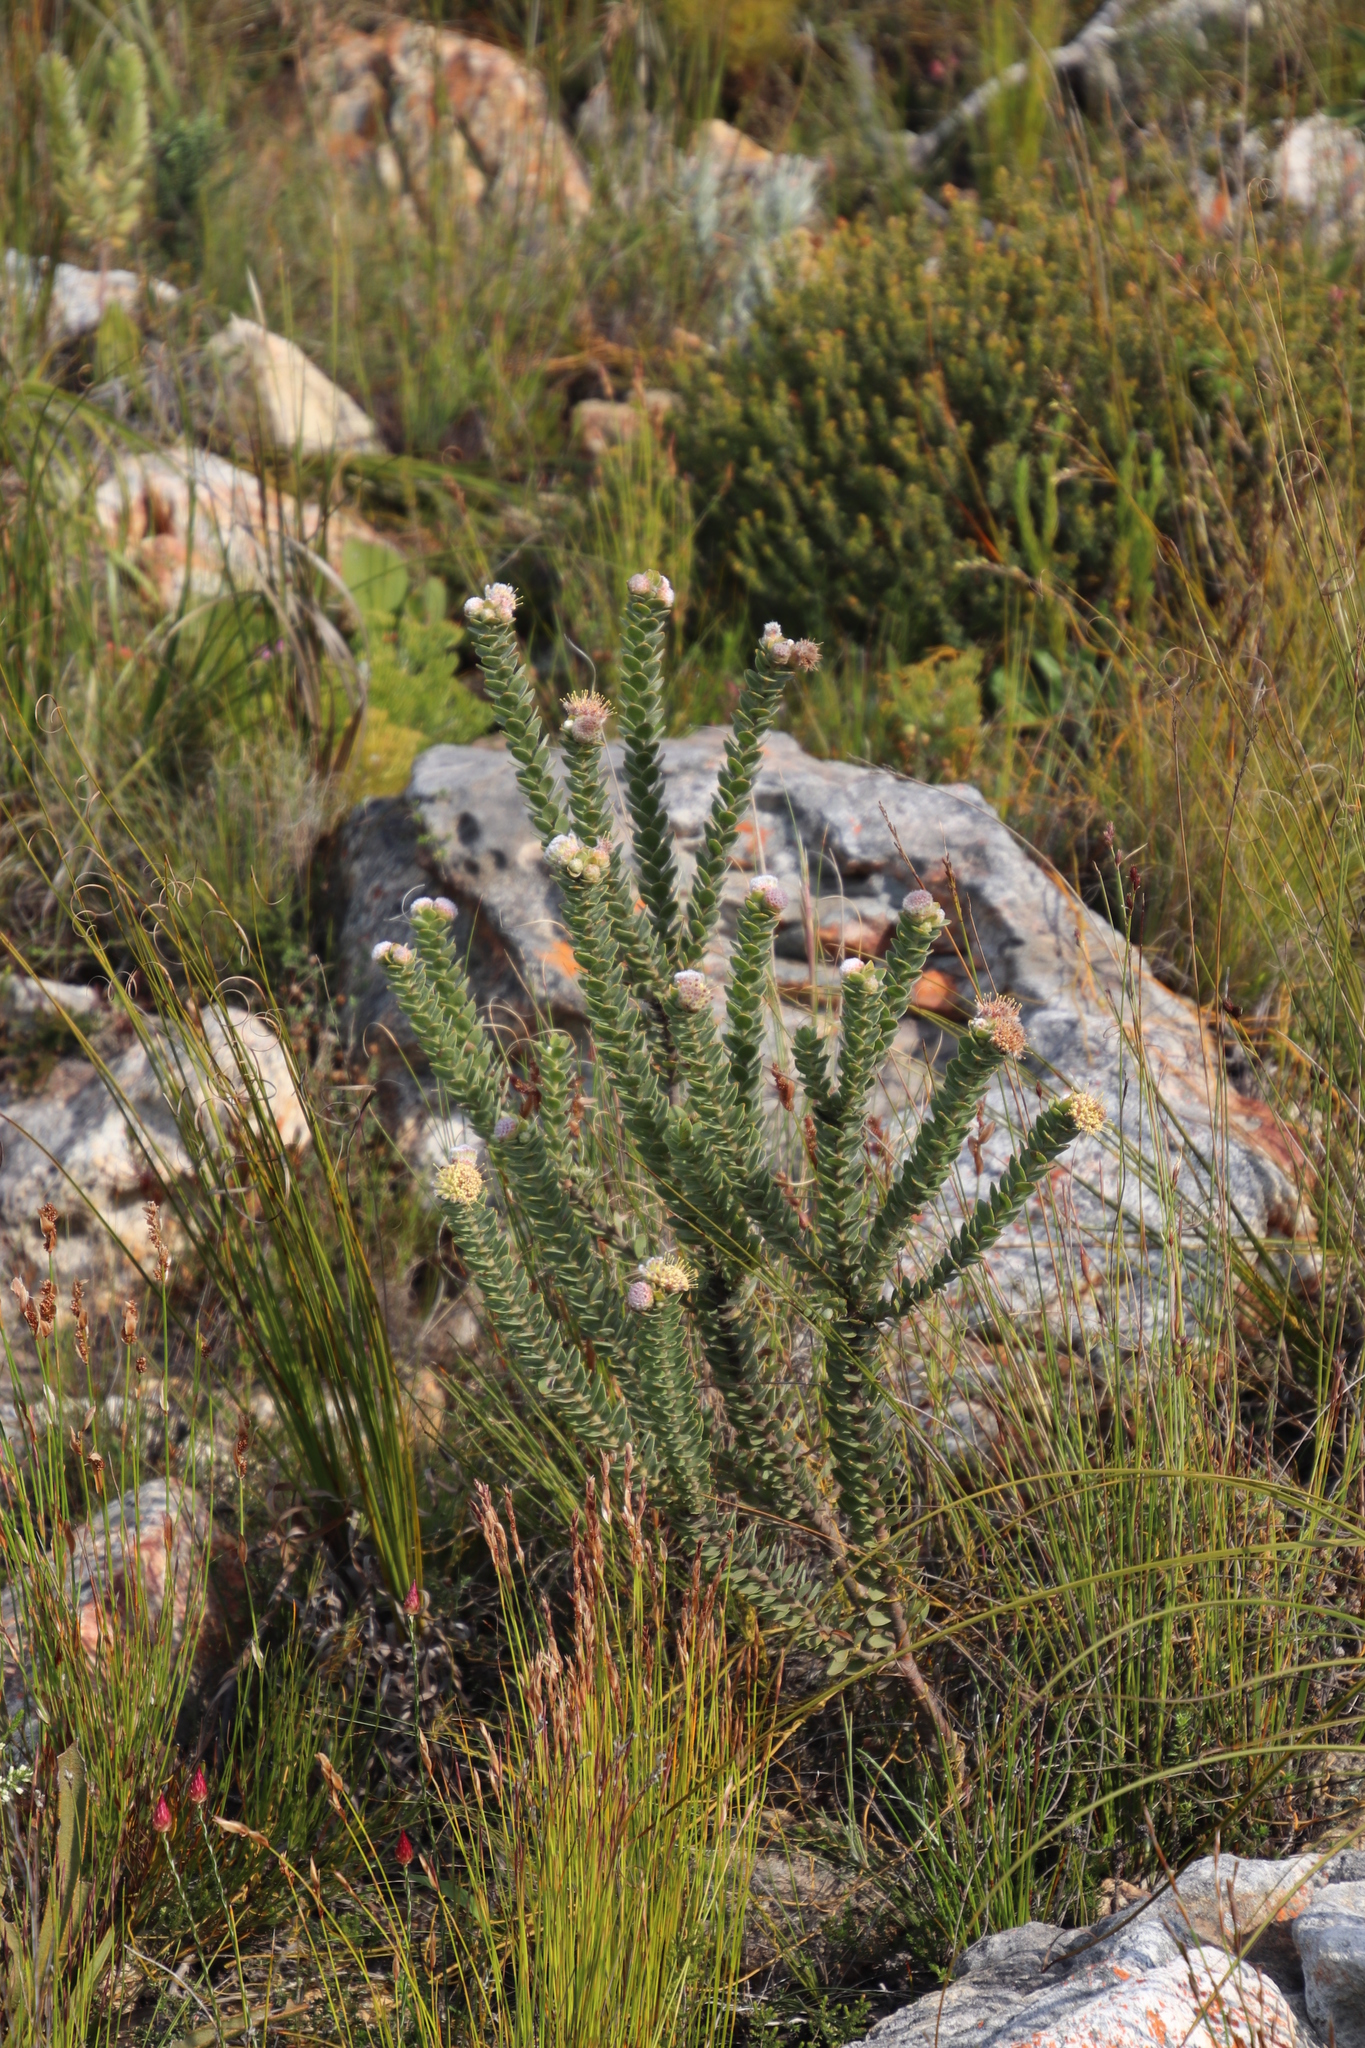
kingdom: Plantae
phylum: Tracheophyta
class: Magnoliopsida
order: Proteales
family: Proteaceae
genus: Leucospermum
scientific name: Leucospermum truncatulum
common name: Oval-leaf pincushion
